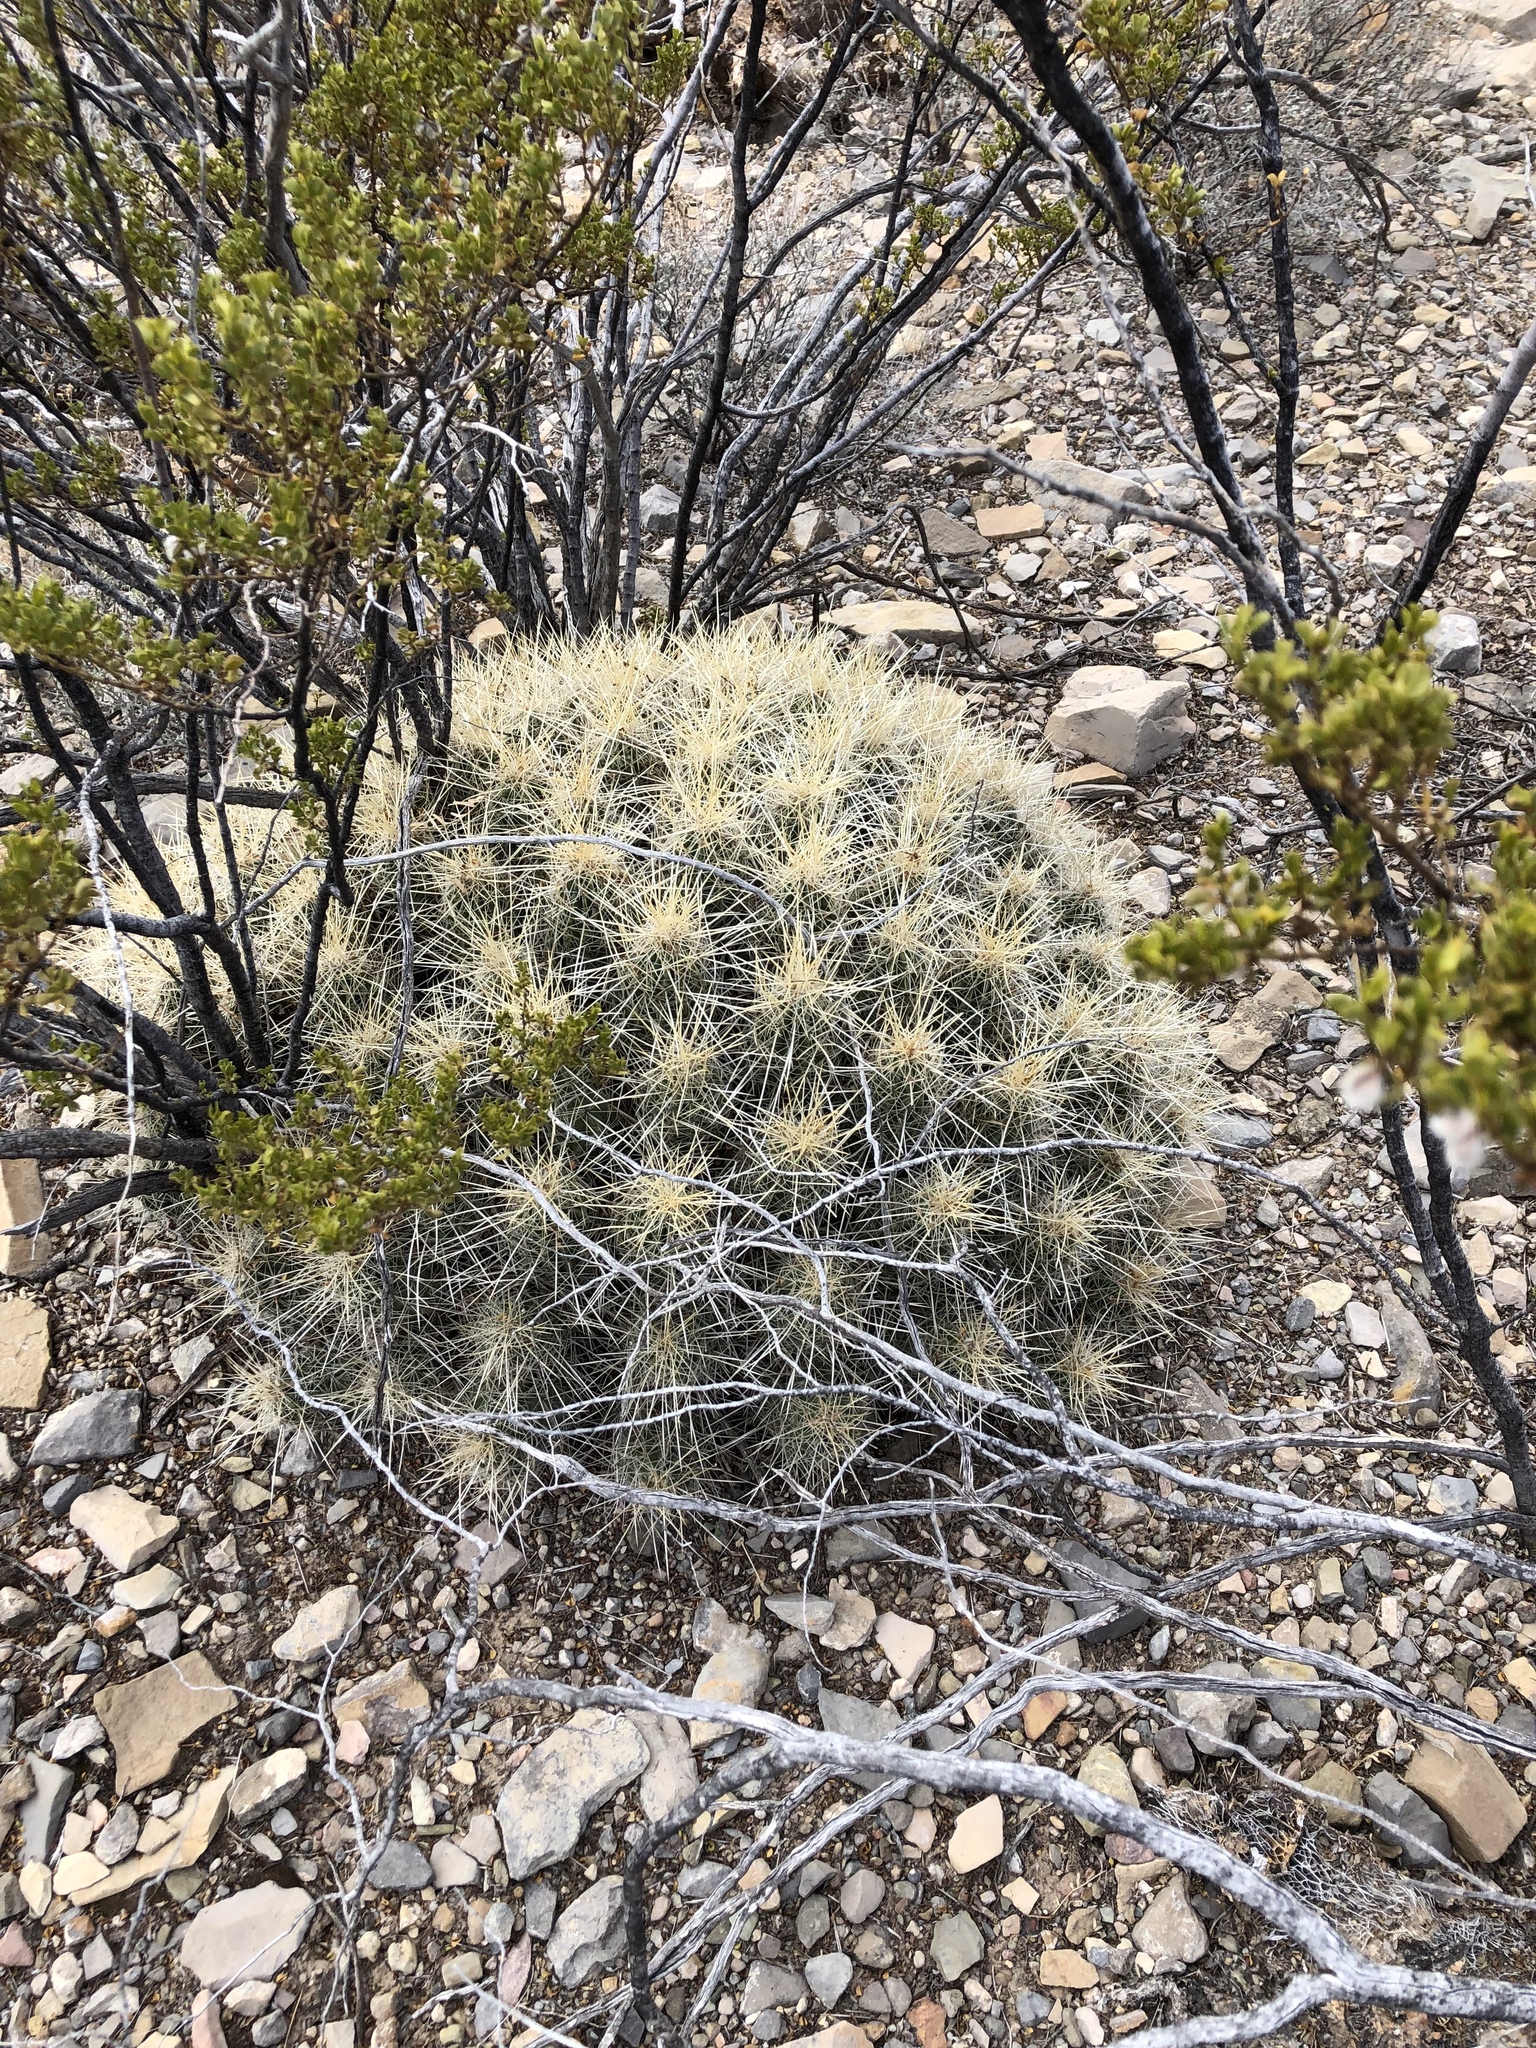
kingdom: Plantae
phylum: Tracheophyta
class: Magnoliopsida
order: Caryophyllales
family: Cactaceae
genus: Echinocereus
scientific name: Echinocereus stramineus
